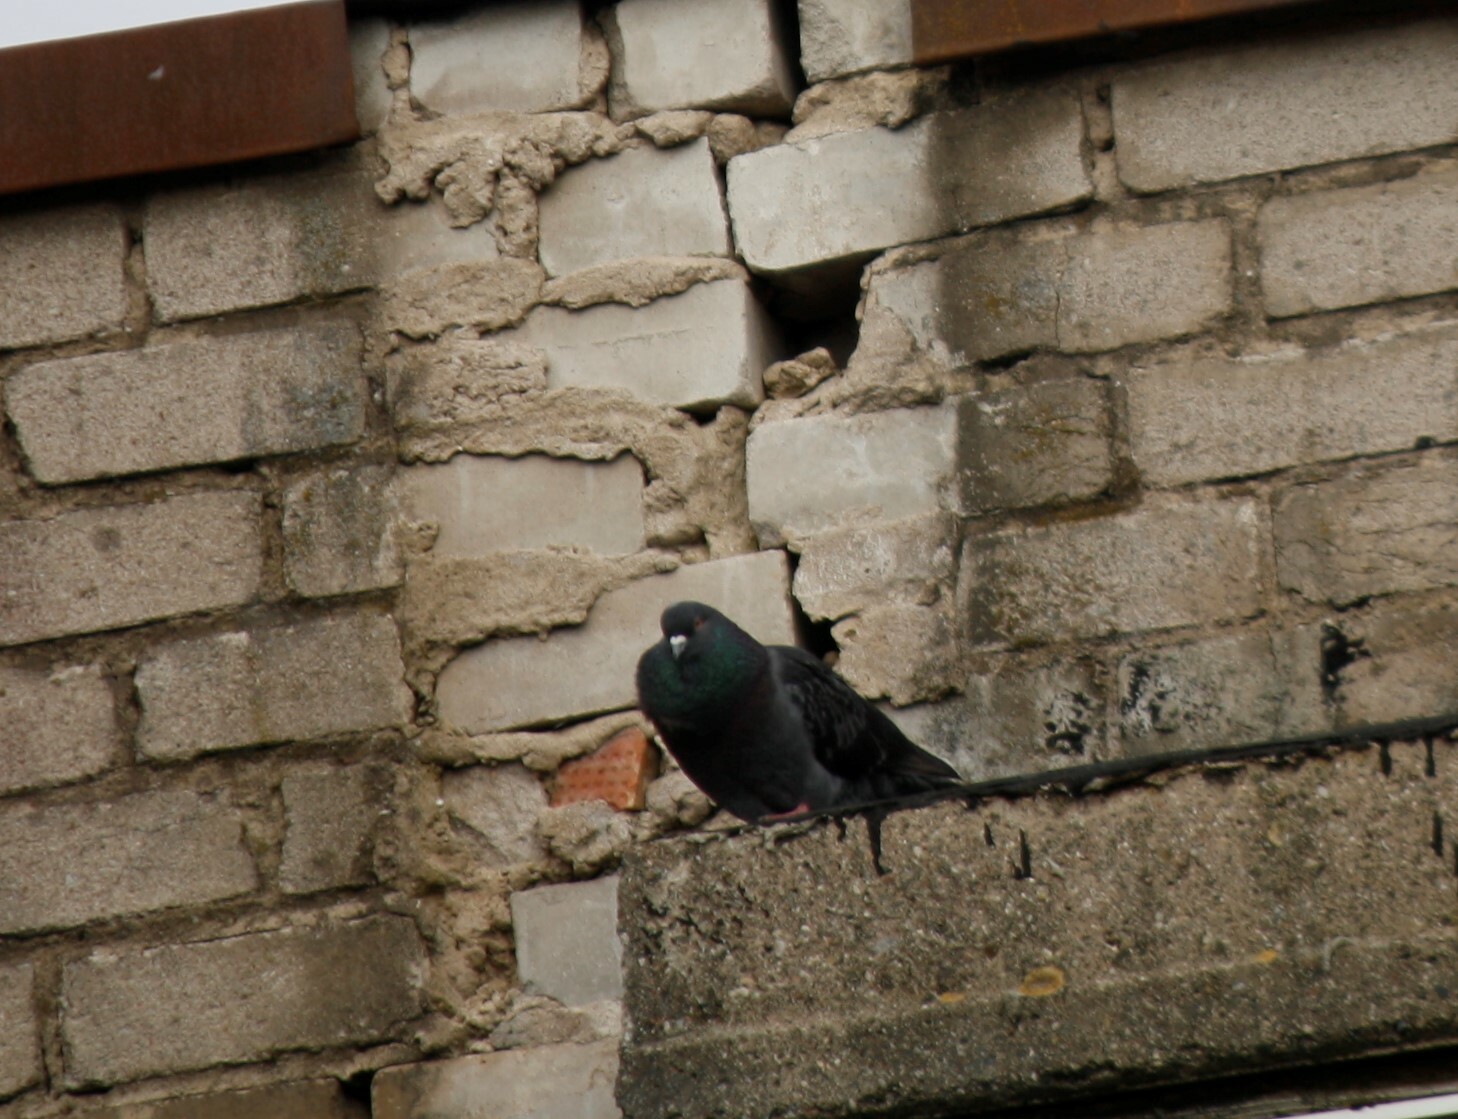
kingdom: Animalia
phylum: Chordata
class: Aves
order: Columbiformes
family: Columbidae
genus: Columba
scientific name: Columba livia
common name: Rock pigeon
